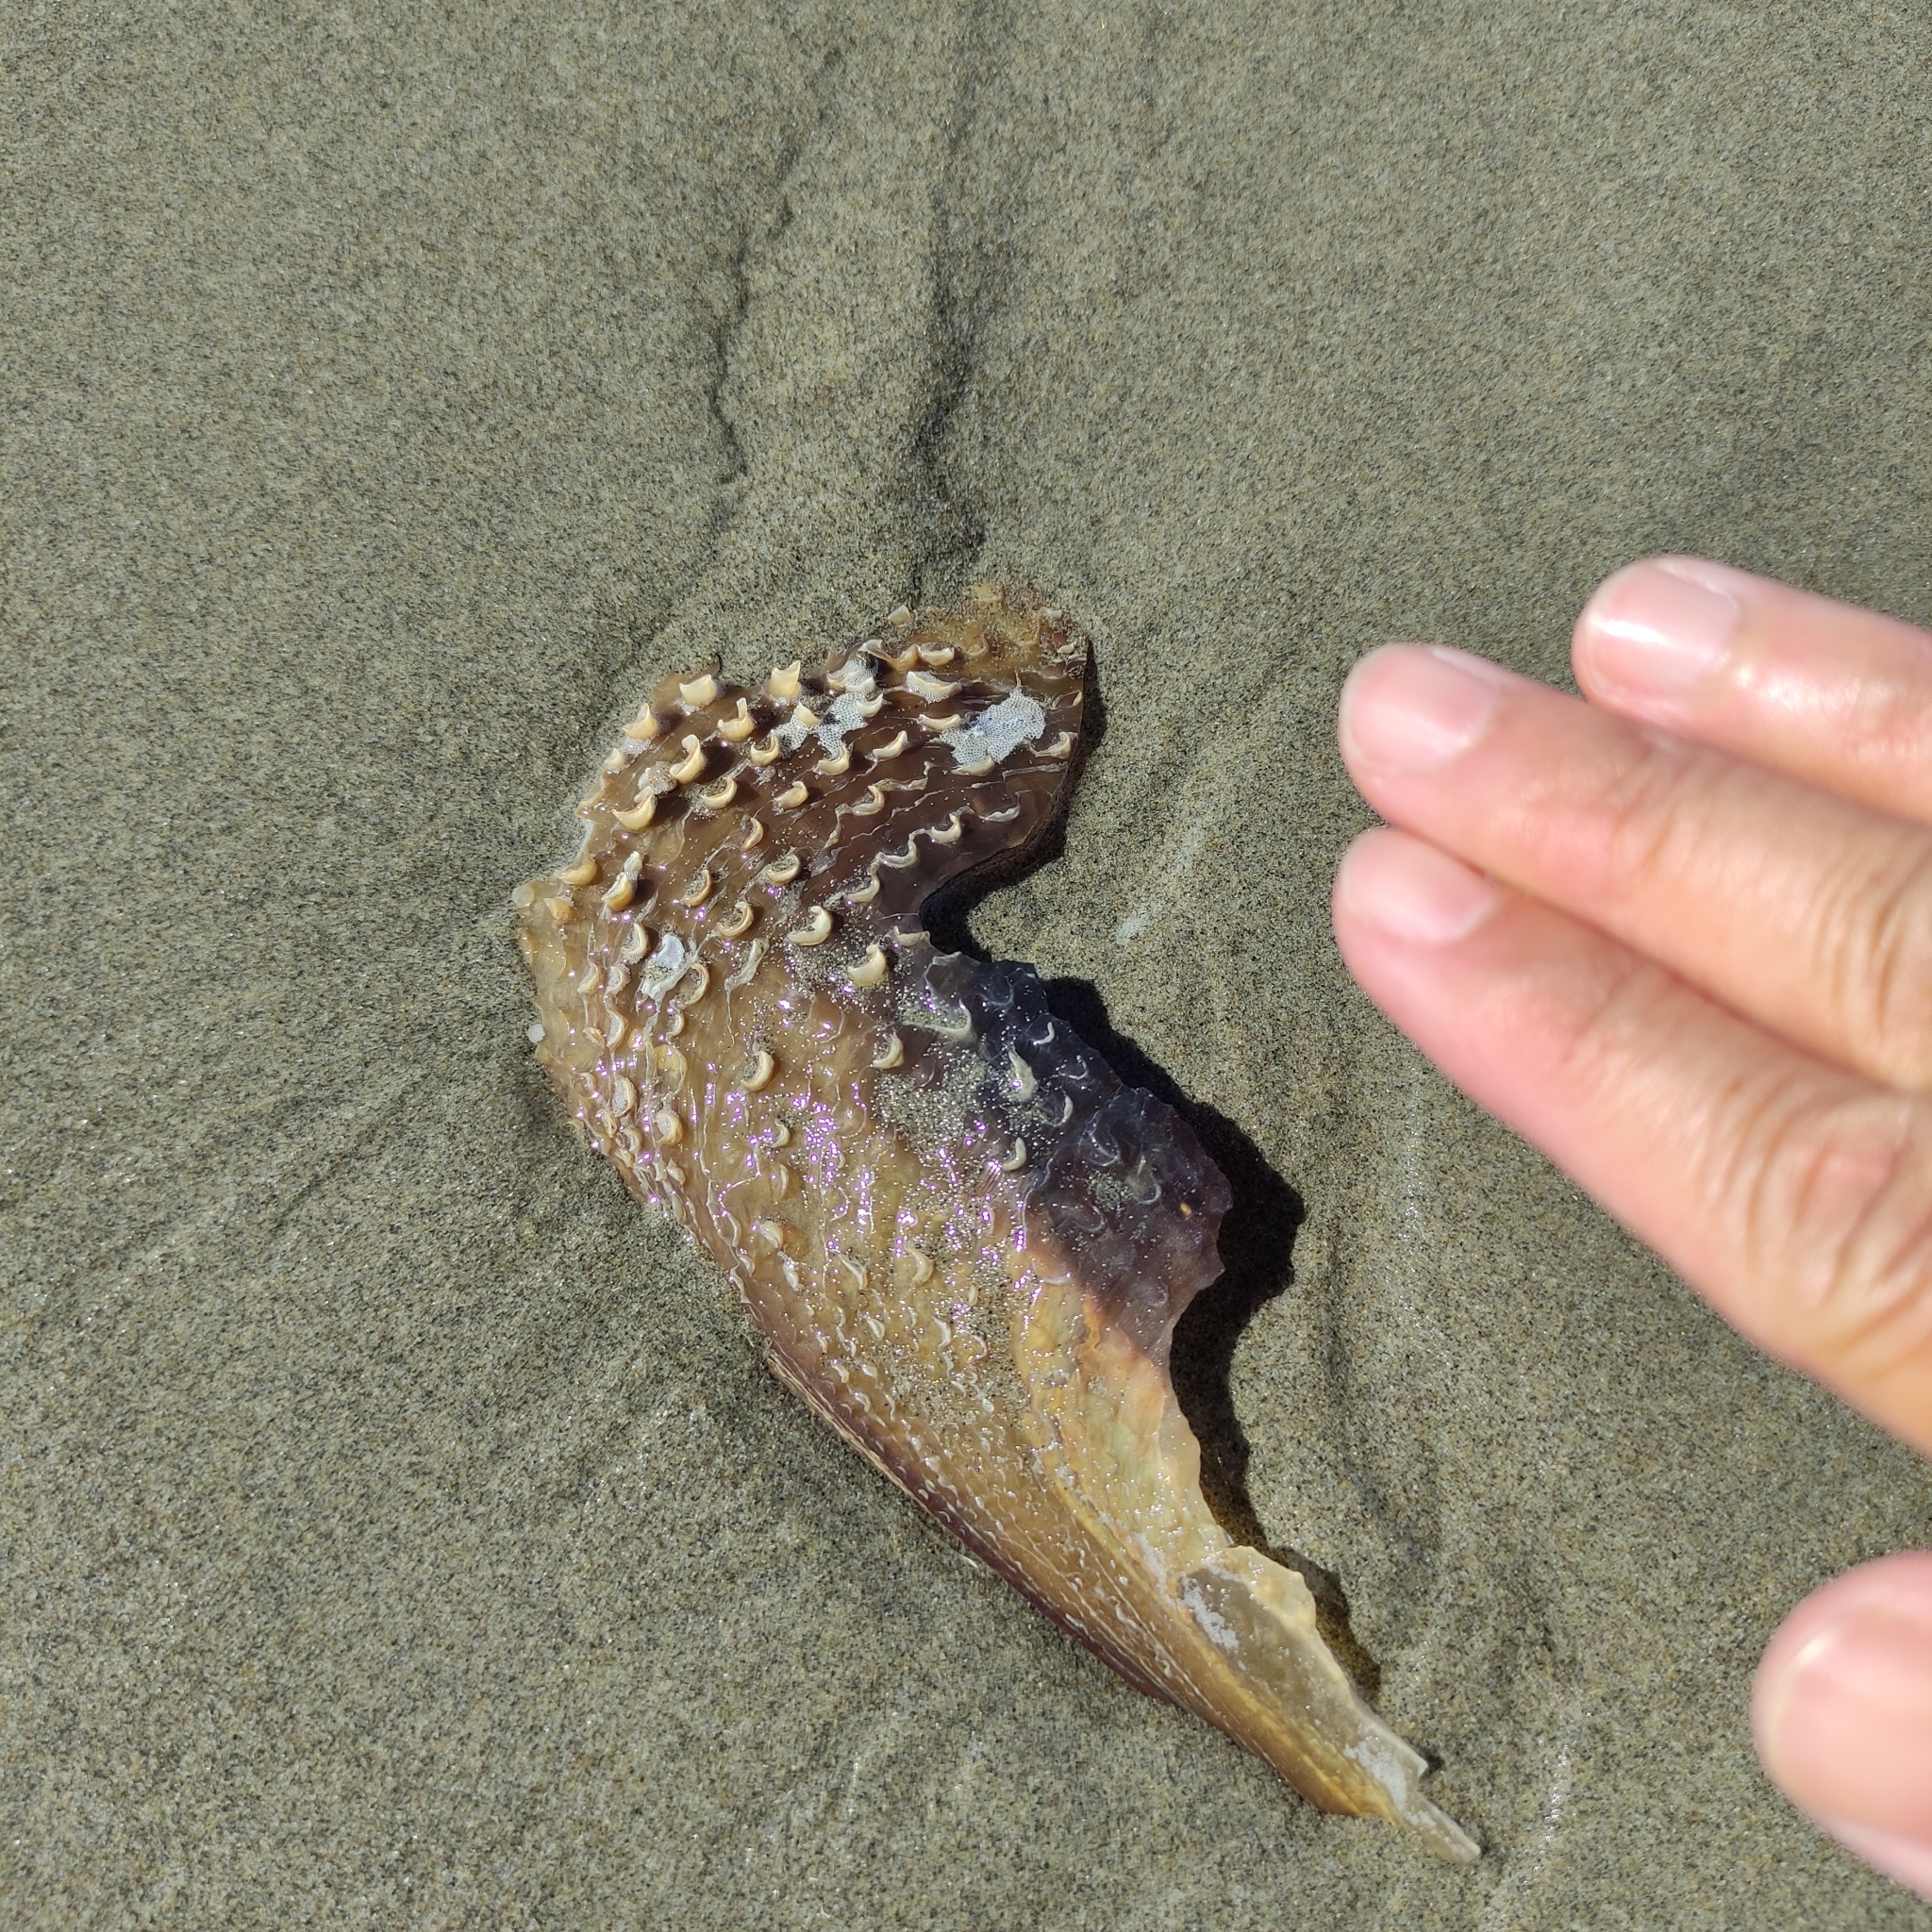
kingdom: Animalia
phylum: Mollusca
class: Bivalvia
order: Ostreida
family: Pinnidae
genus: Atrina
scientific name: Atrina zelandica
